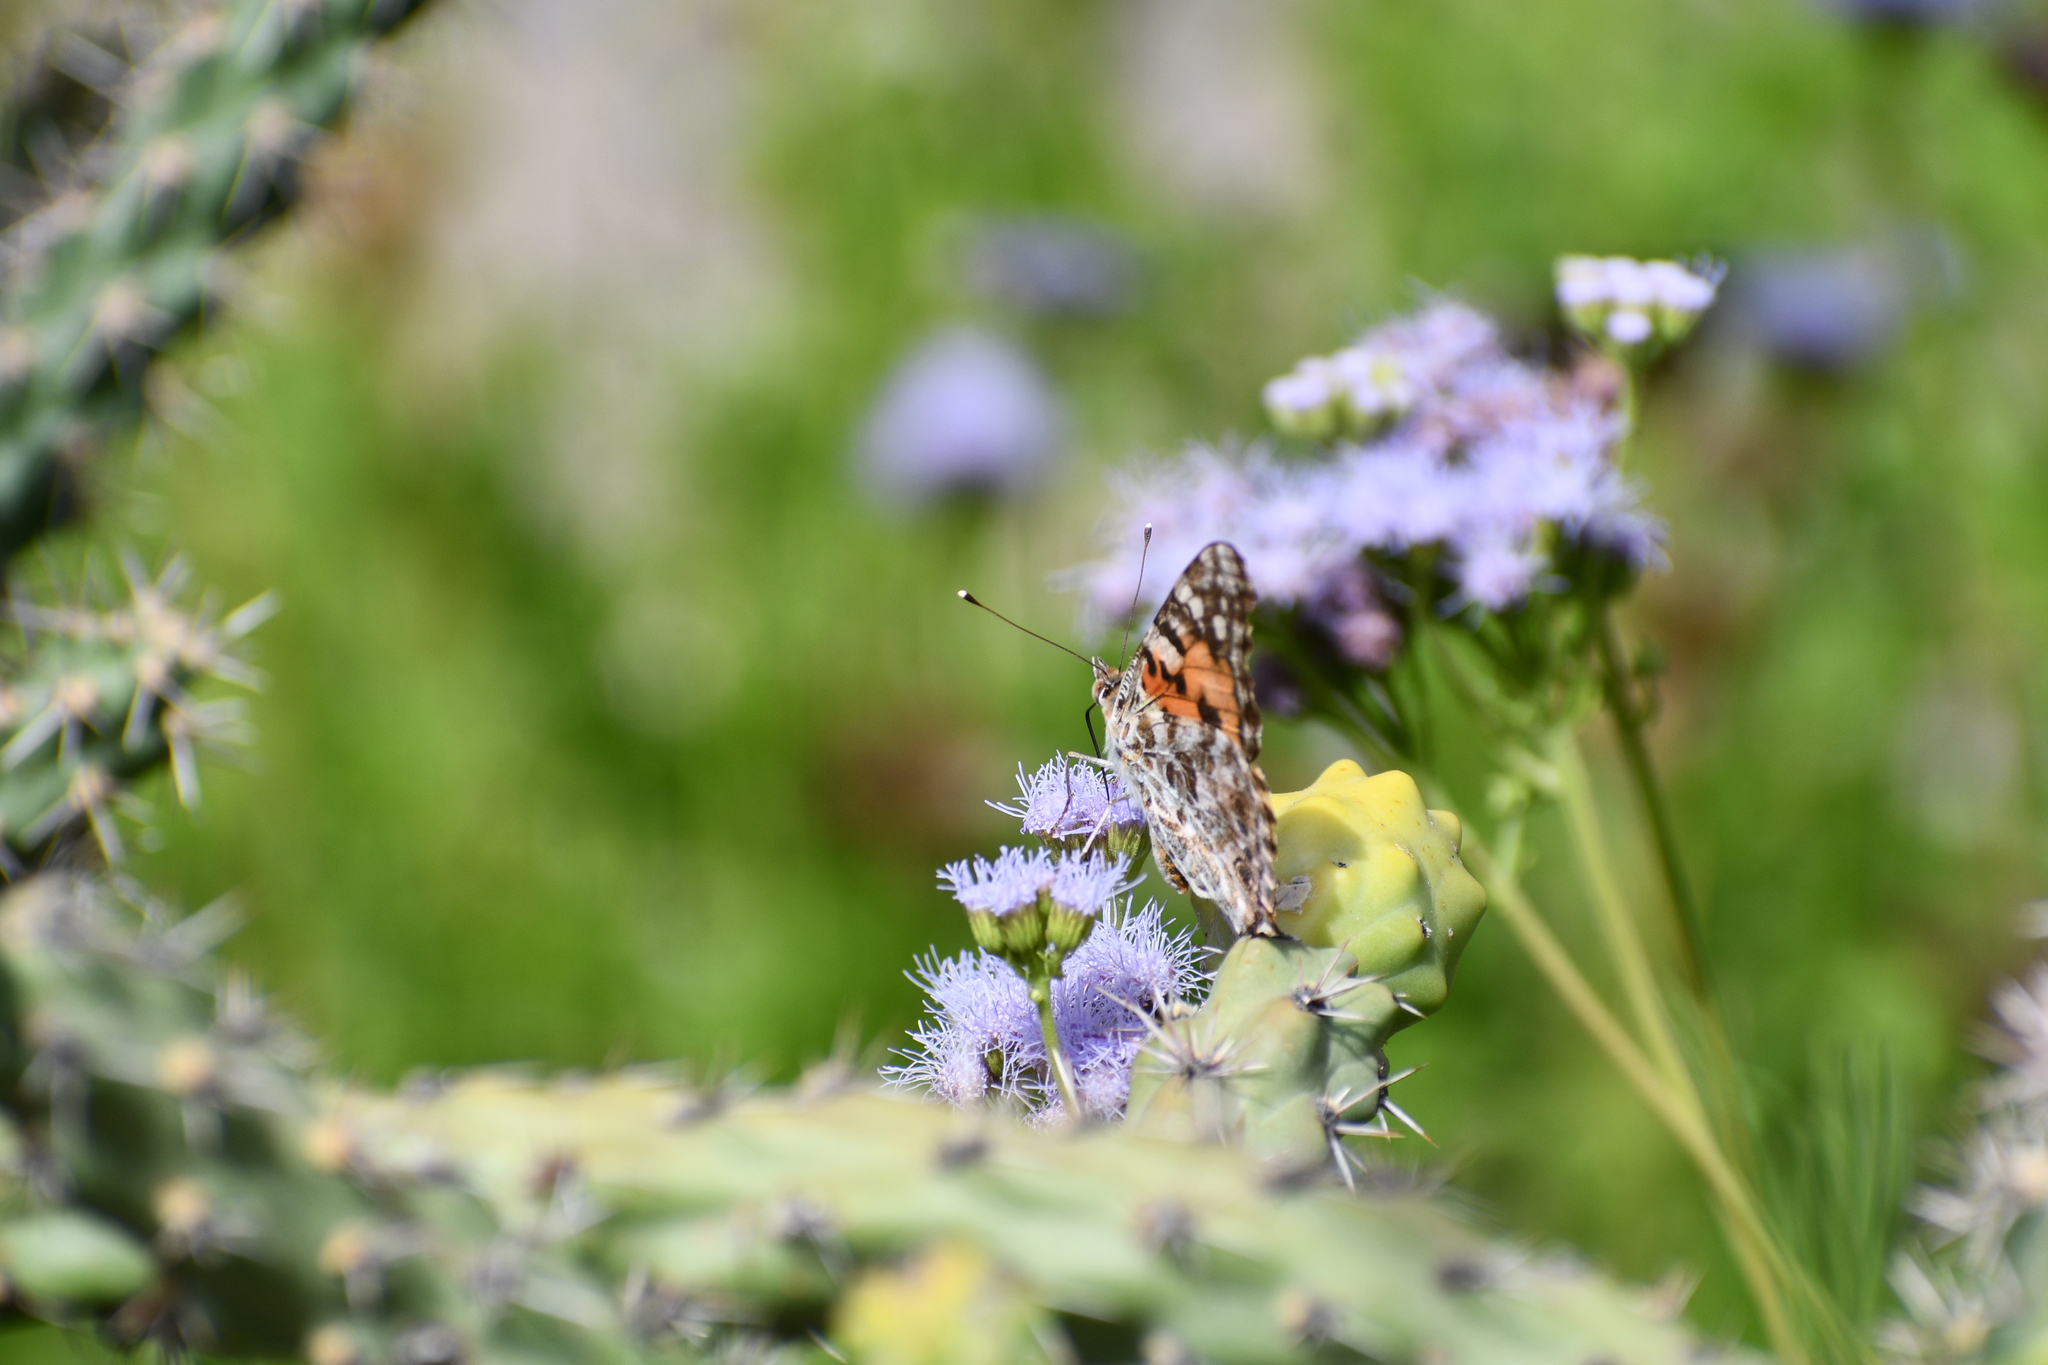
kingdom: Animalia
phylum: Arthropoda
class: Insecta
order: Lepidoptera
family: Nymphalidae
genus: Vanessa
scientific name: Vanessa cardui
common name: Painted lady
